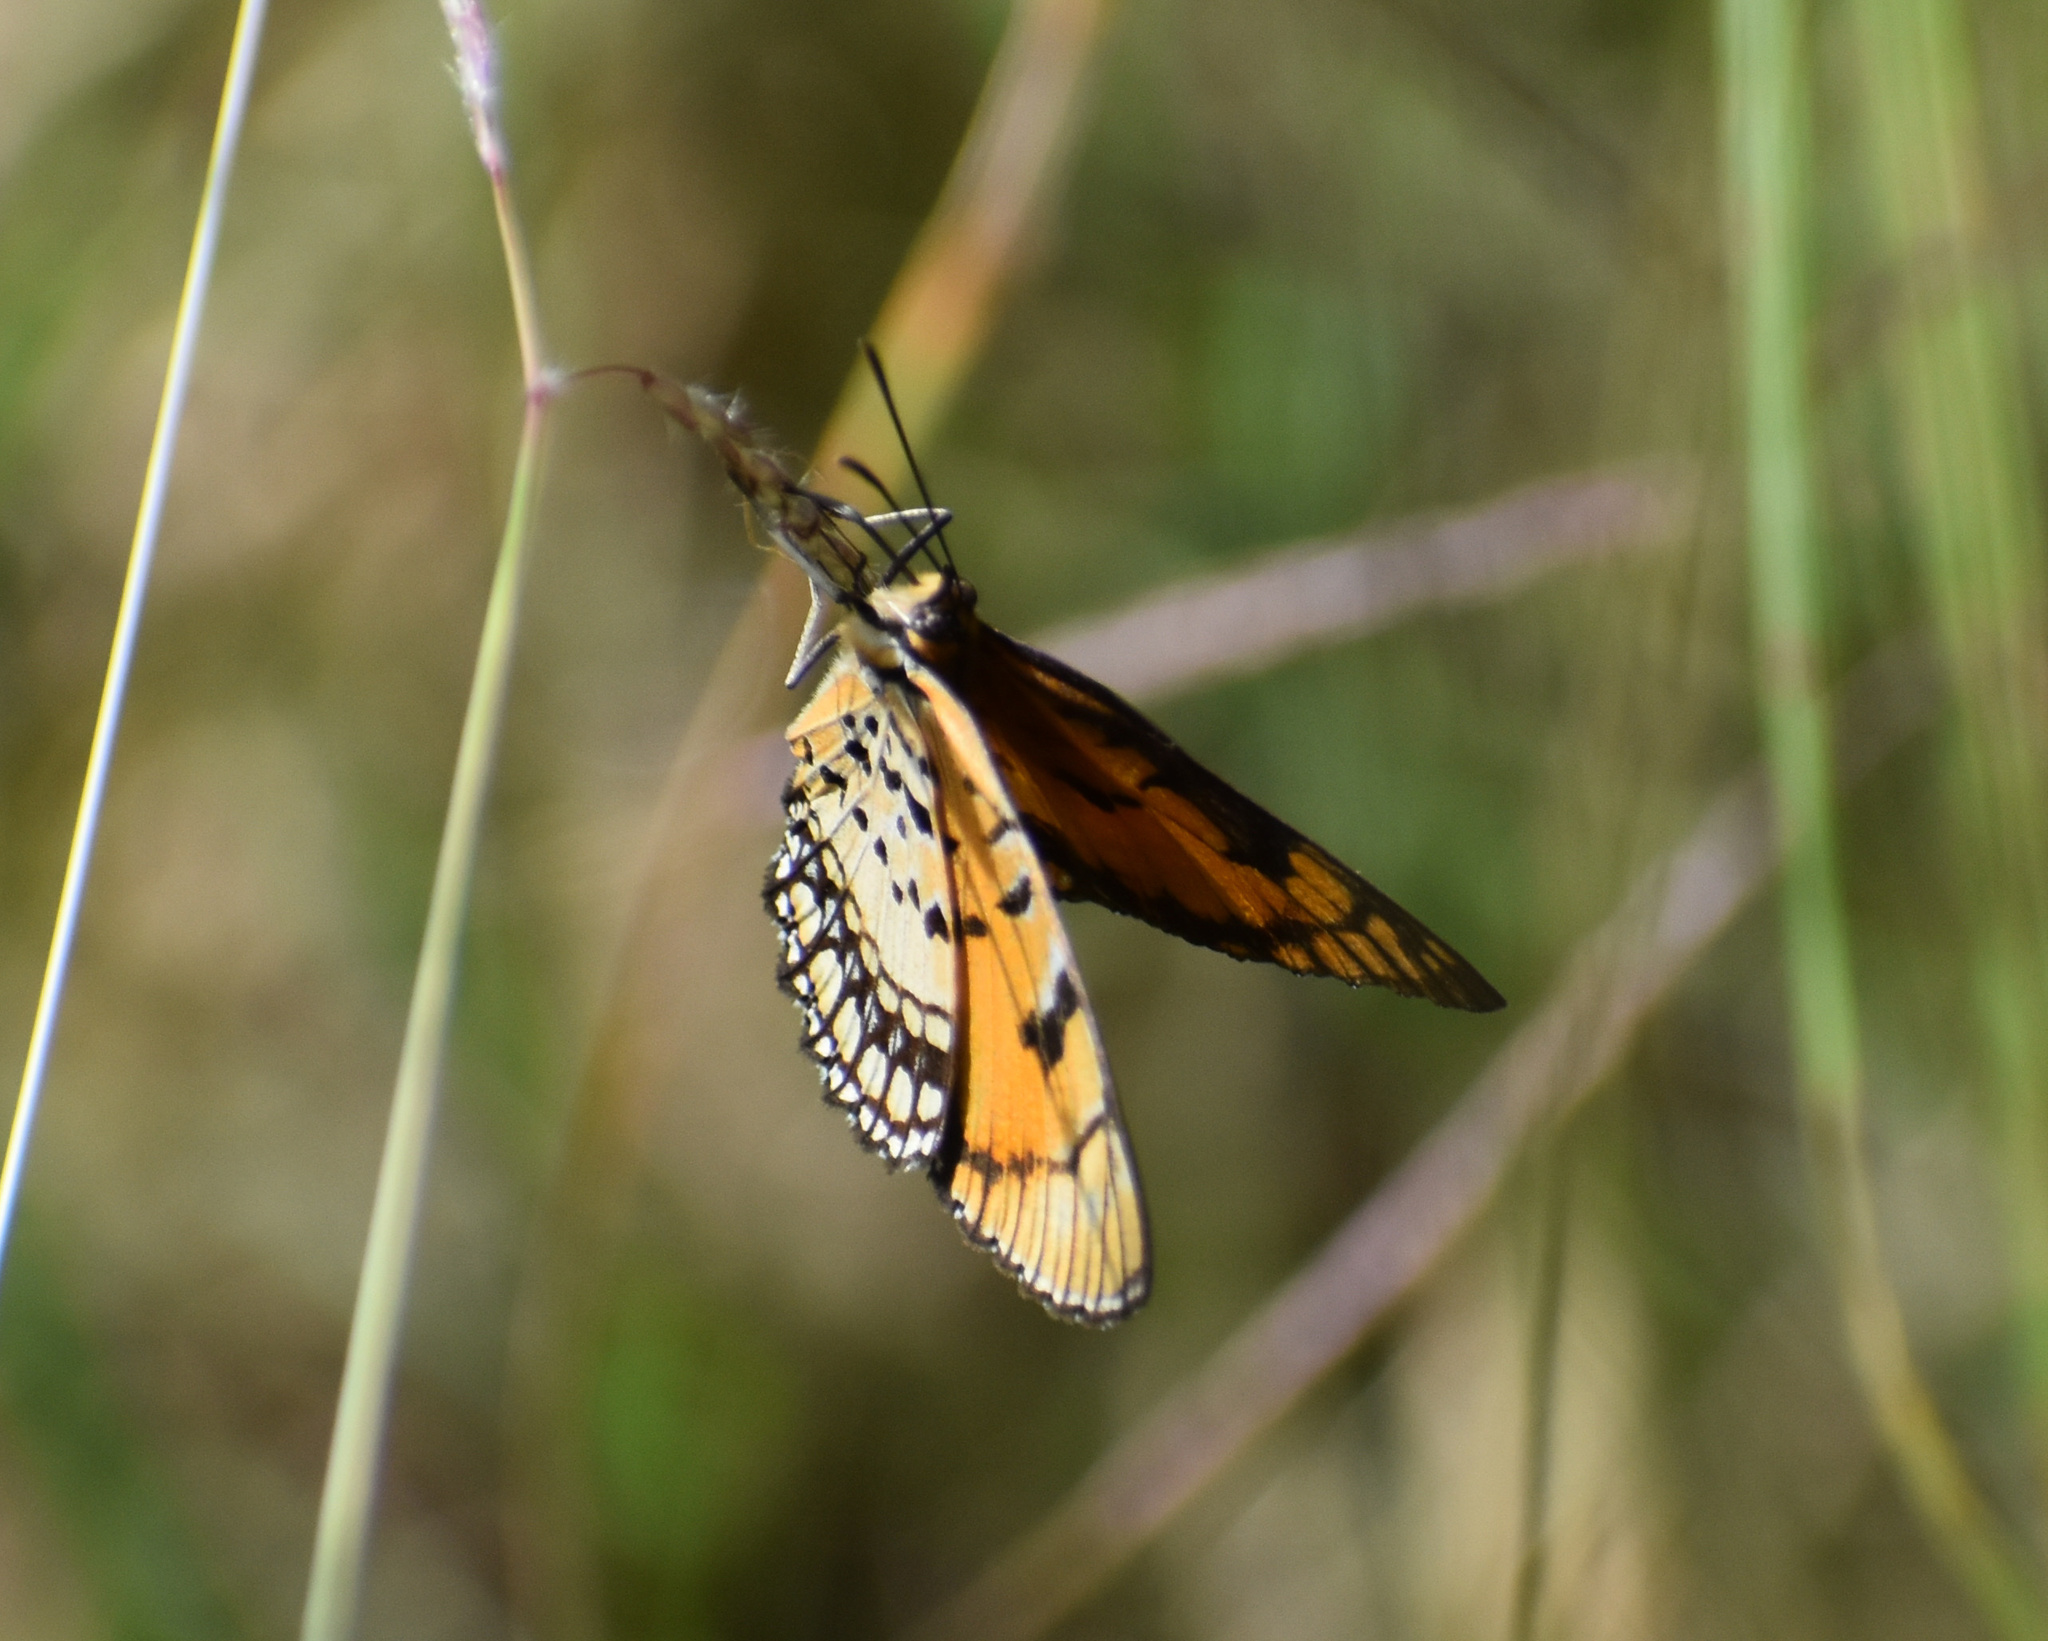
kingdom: Animalia
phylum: Arthropoda
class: Insecta
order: Lepidoptera
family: Nymphalidae
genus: Byblia
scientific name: Byblia acheloia
